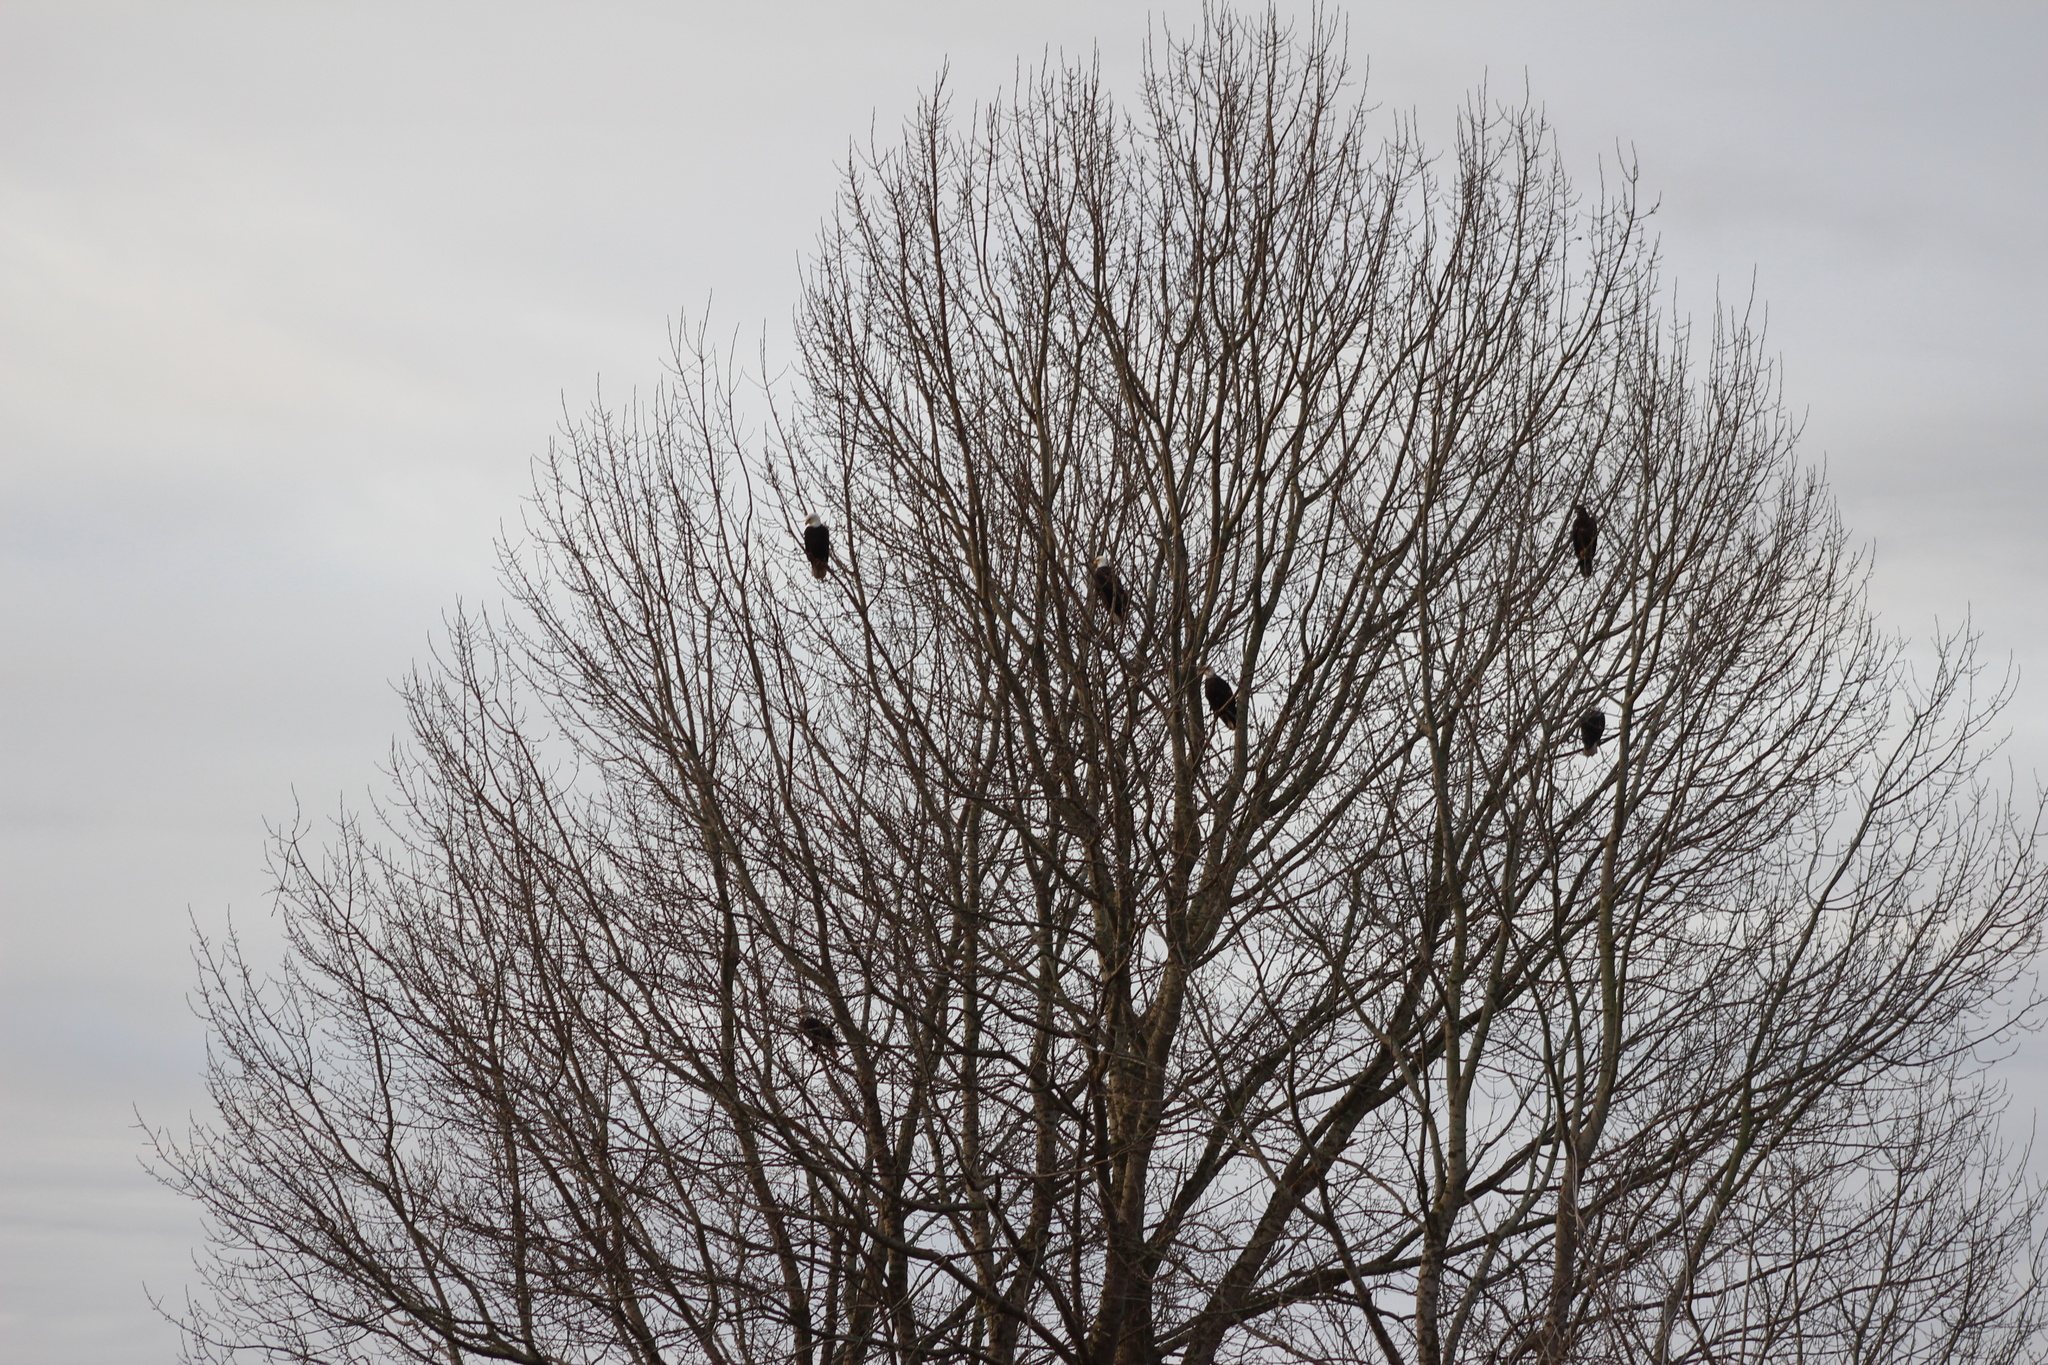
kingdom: Animalia
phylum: Chordata
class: Aves
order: Accipitriformes
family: Accipitridae
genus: Haliaeetus
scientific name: Haliaeetus leucocephalus
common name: Bald eagle
